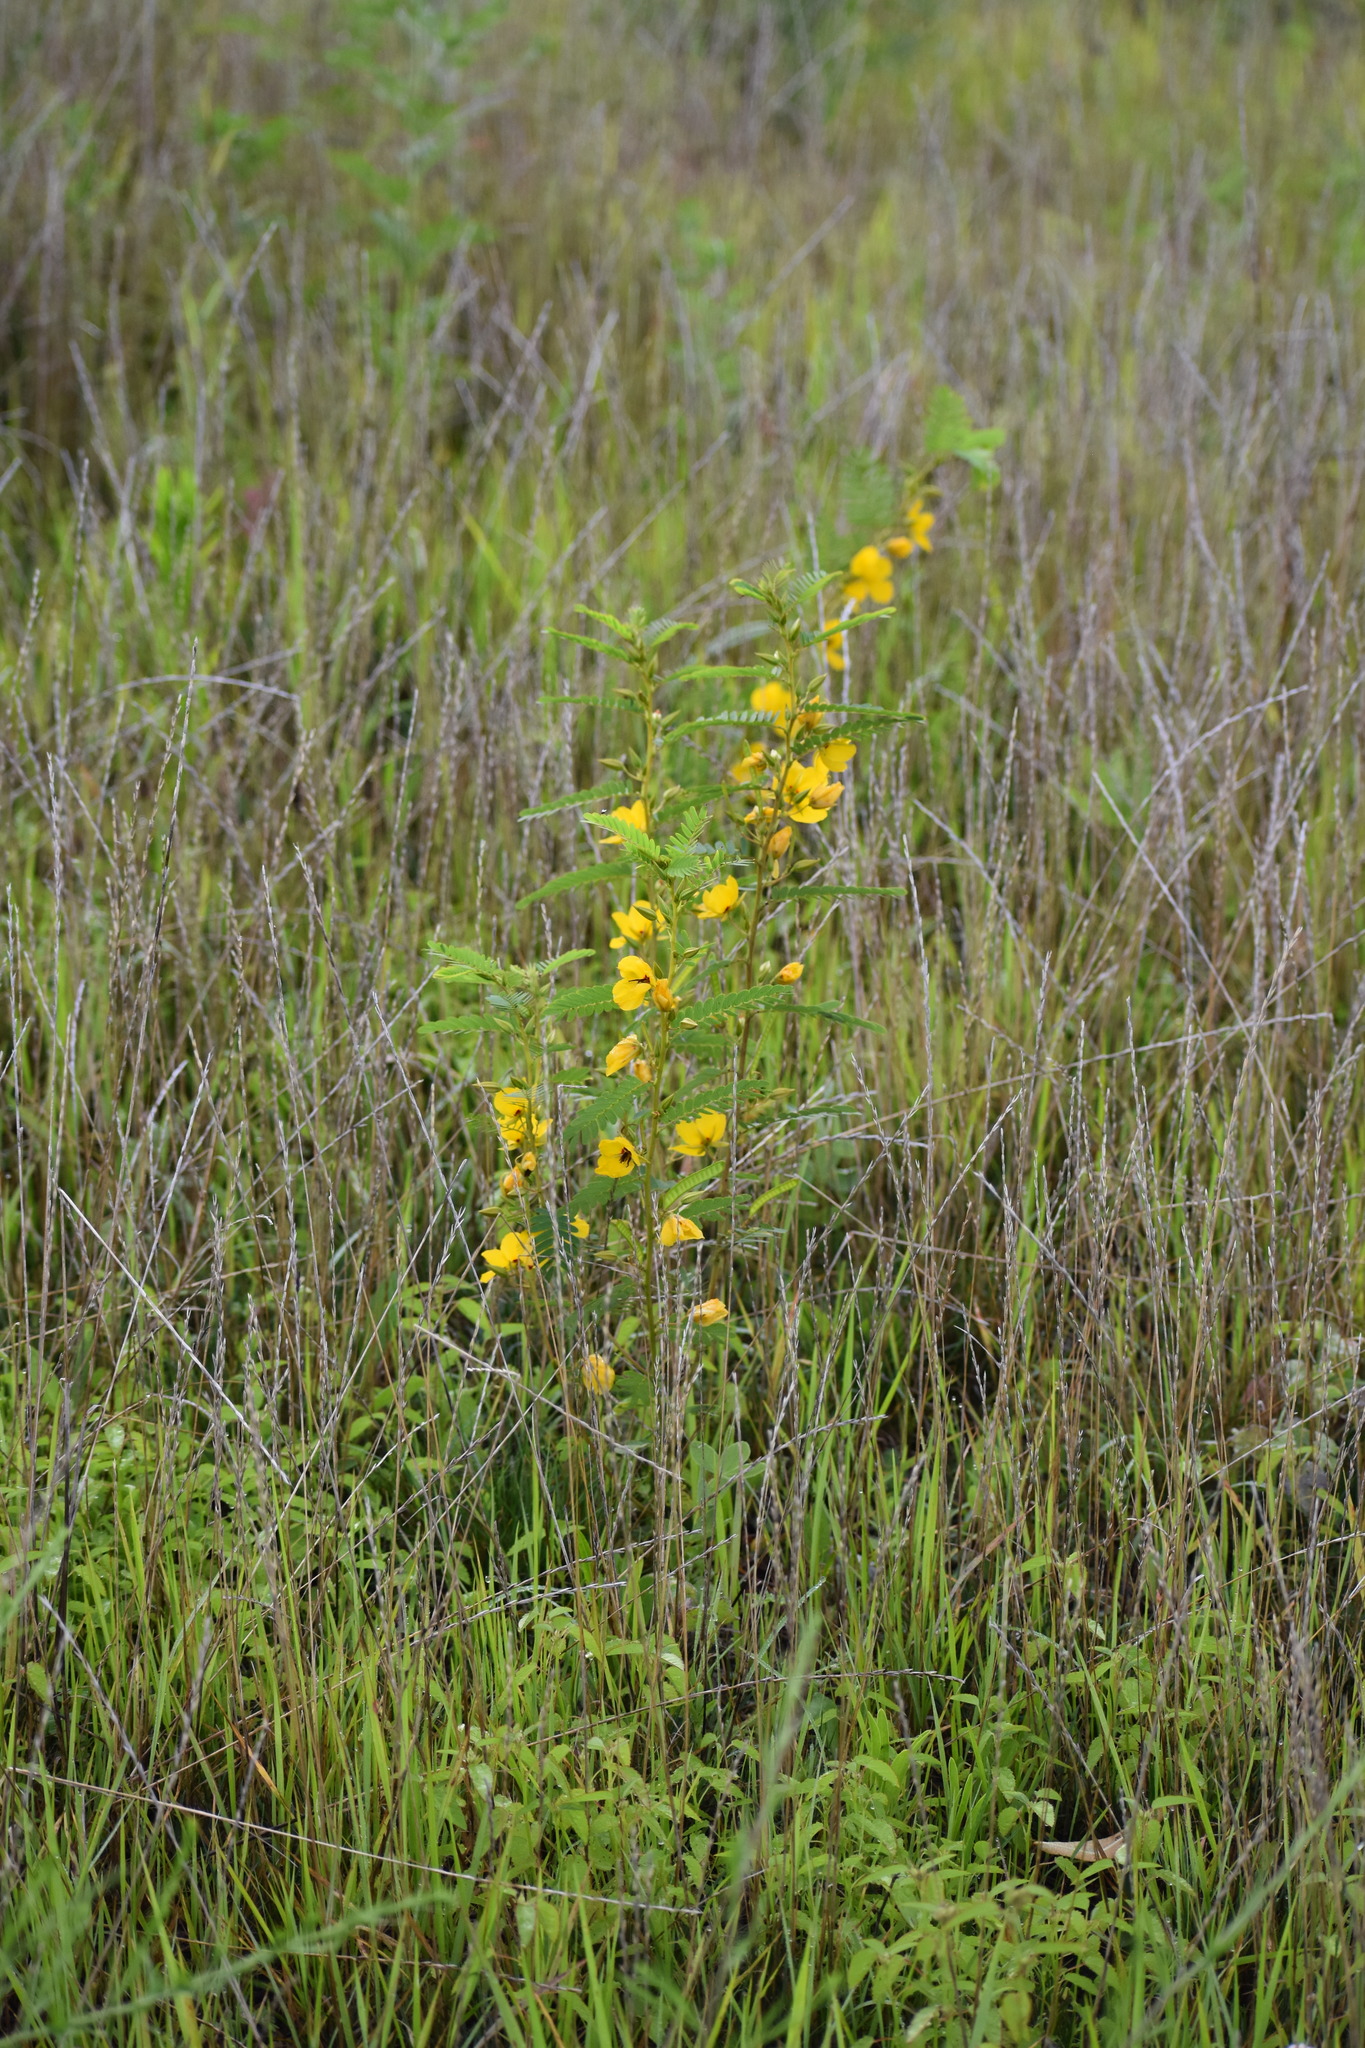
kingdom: Plantae
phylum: Tracheophyta
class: Magnoliopsida
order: Fabales
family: Fabaceae
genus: Chamaecrista
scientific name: Chamaecrista fasciculata
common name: Golden cassia
